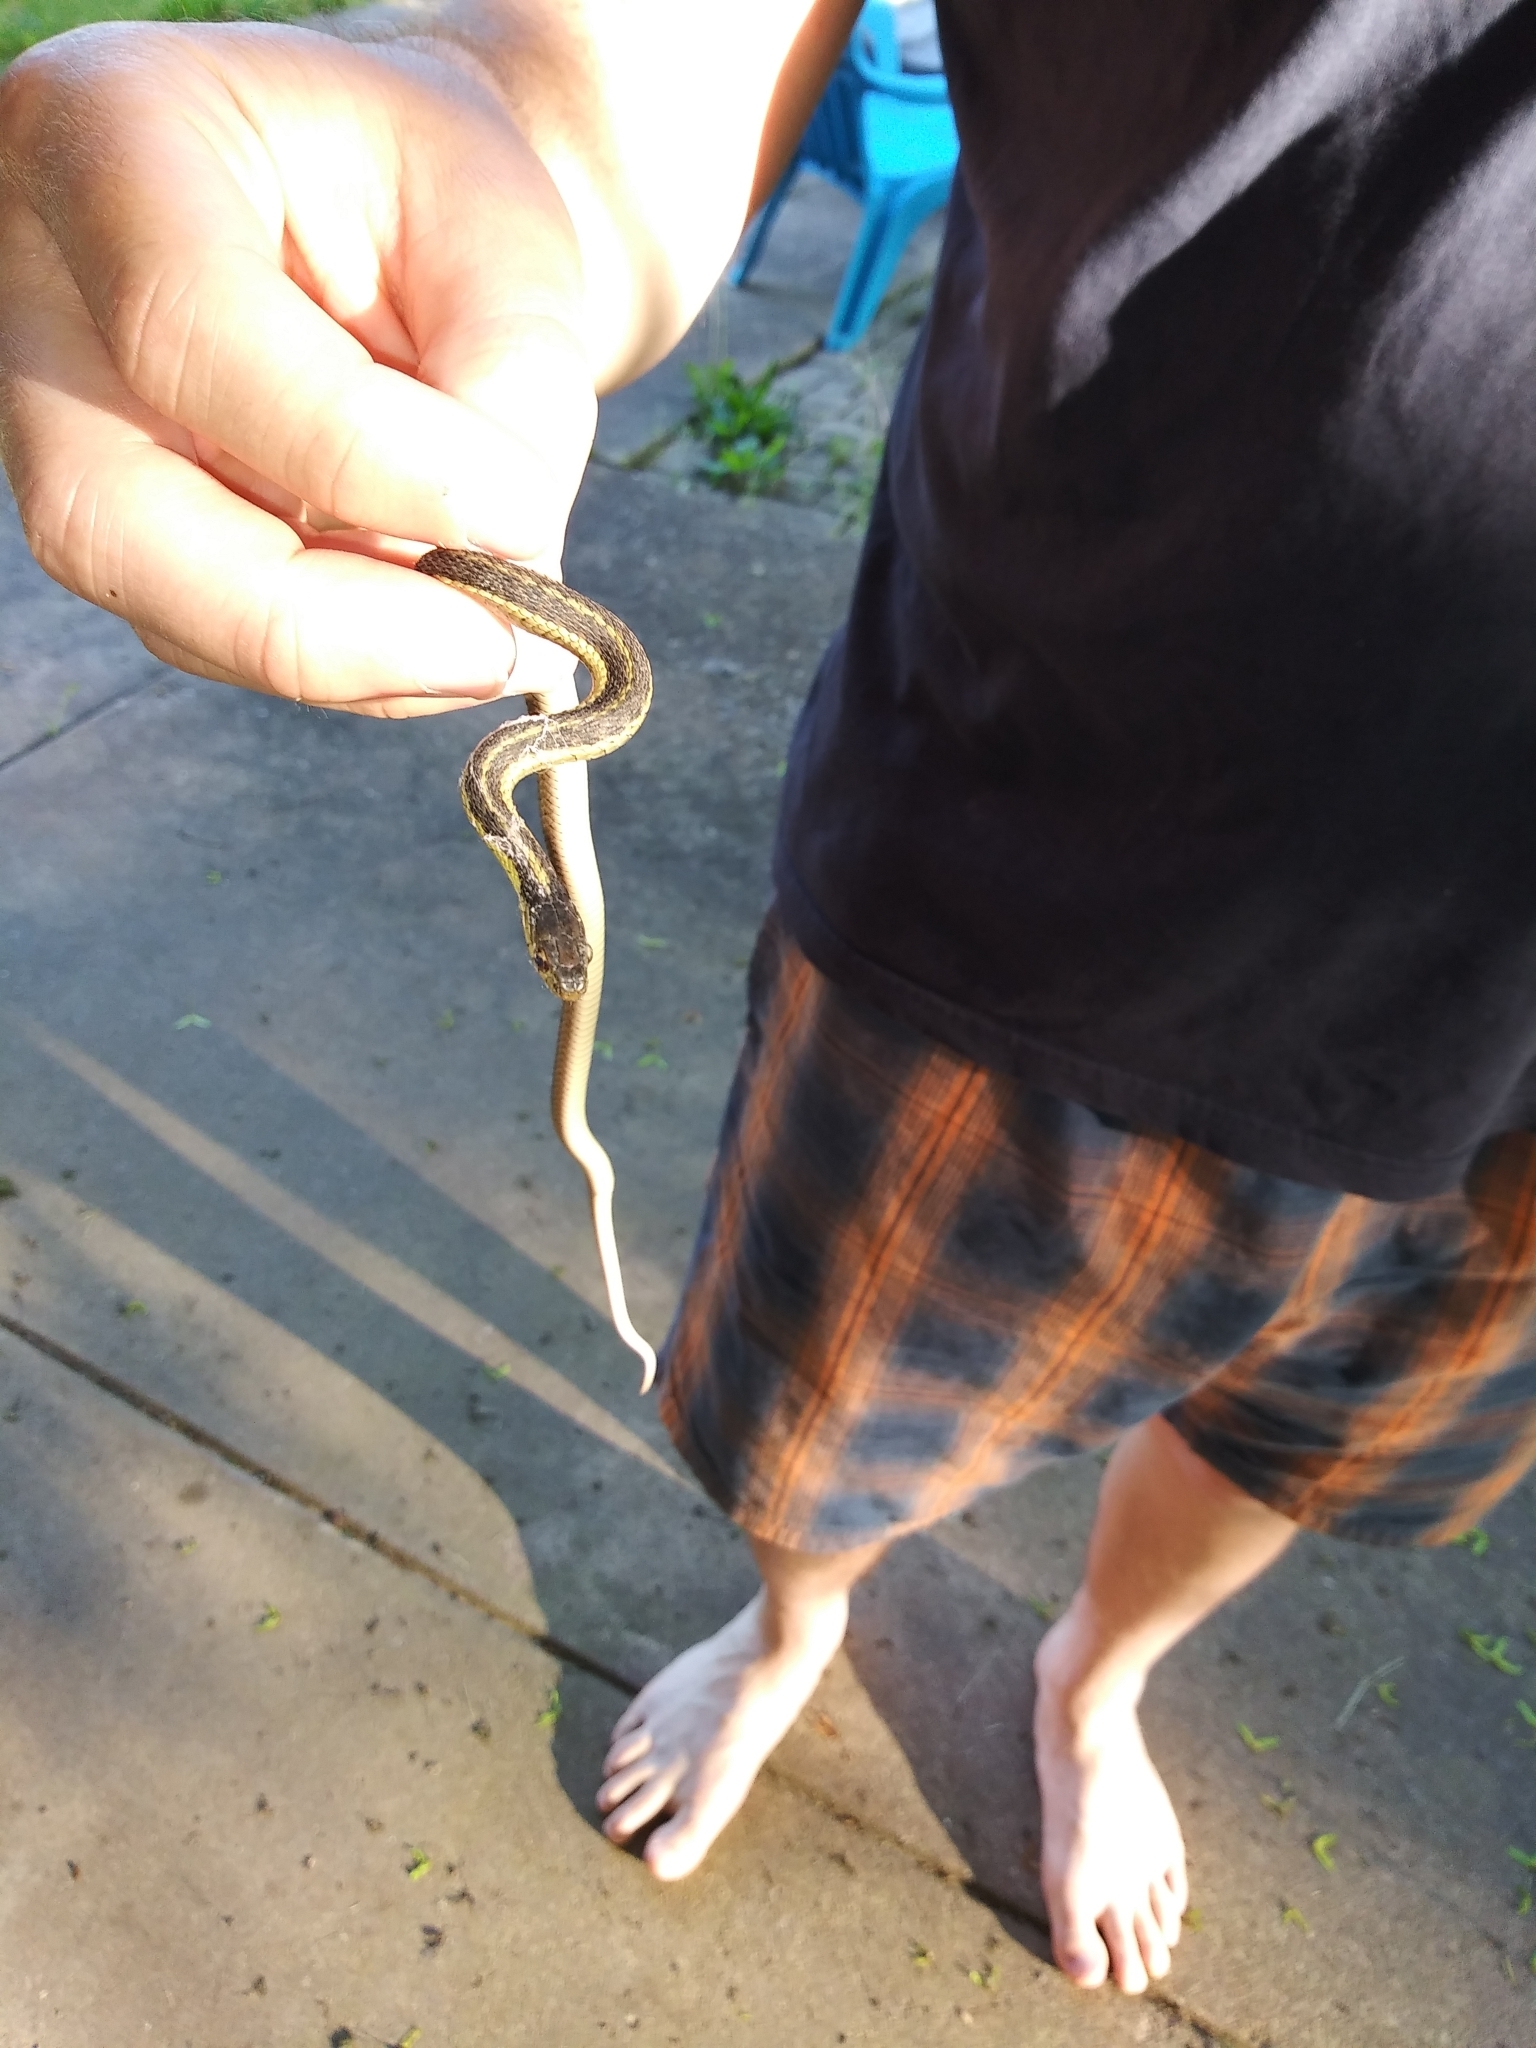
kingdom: Animalia
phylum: Chordata
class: Squamata
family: Colubridae
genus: Thamnophis
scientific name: Thamnophis sirtalis
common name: Common garter snake
